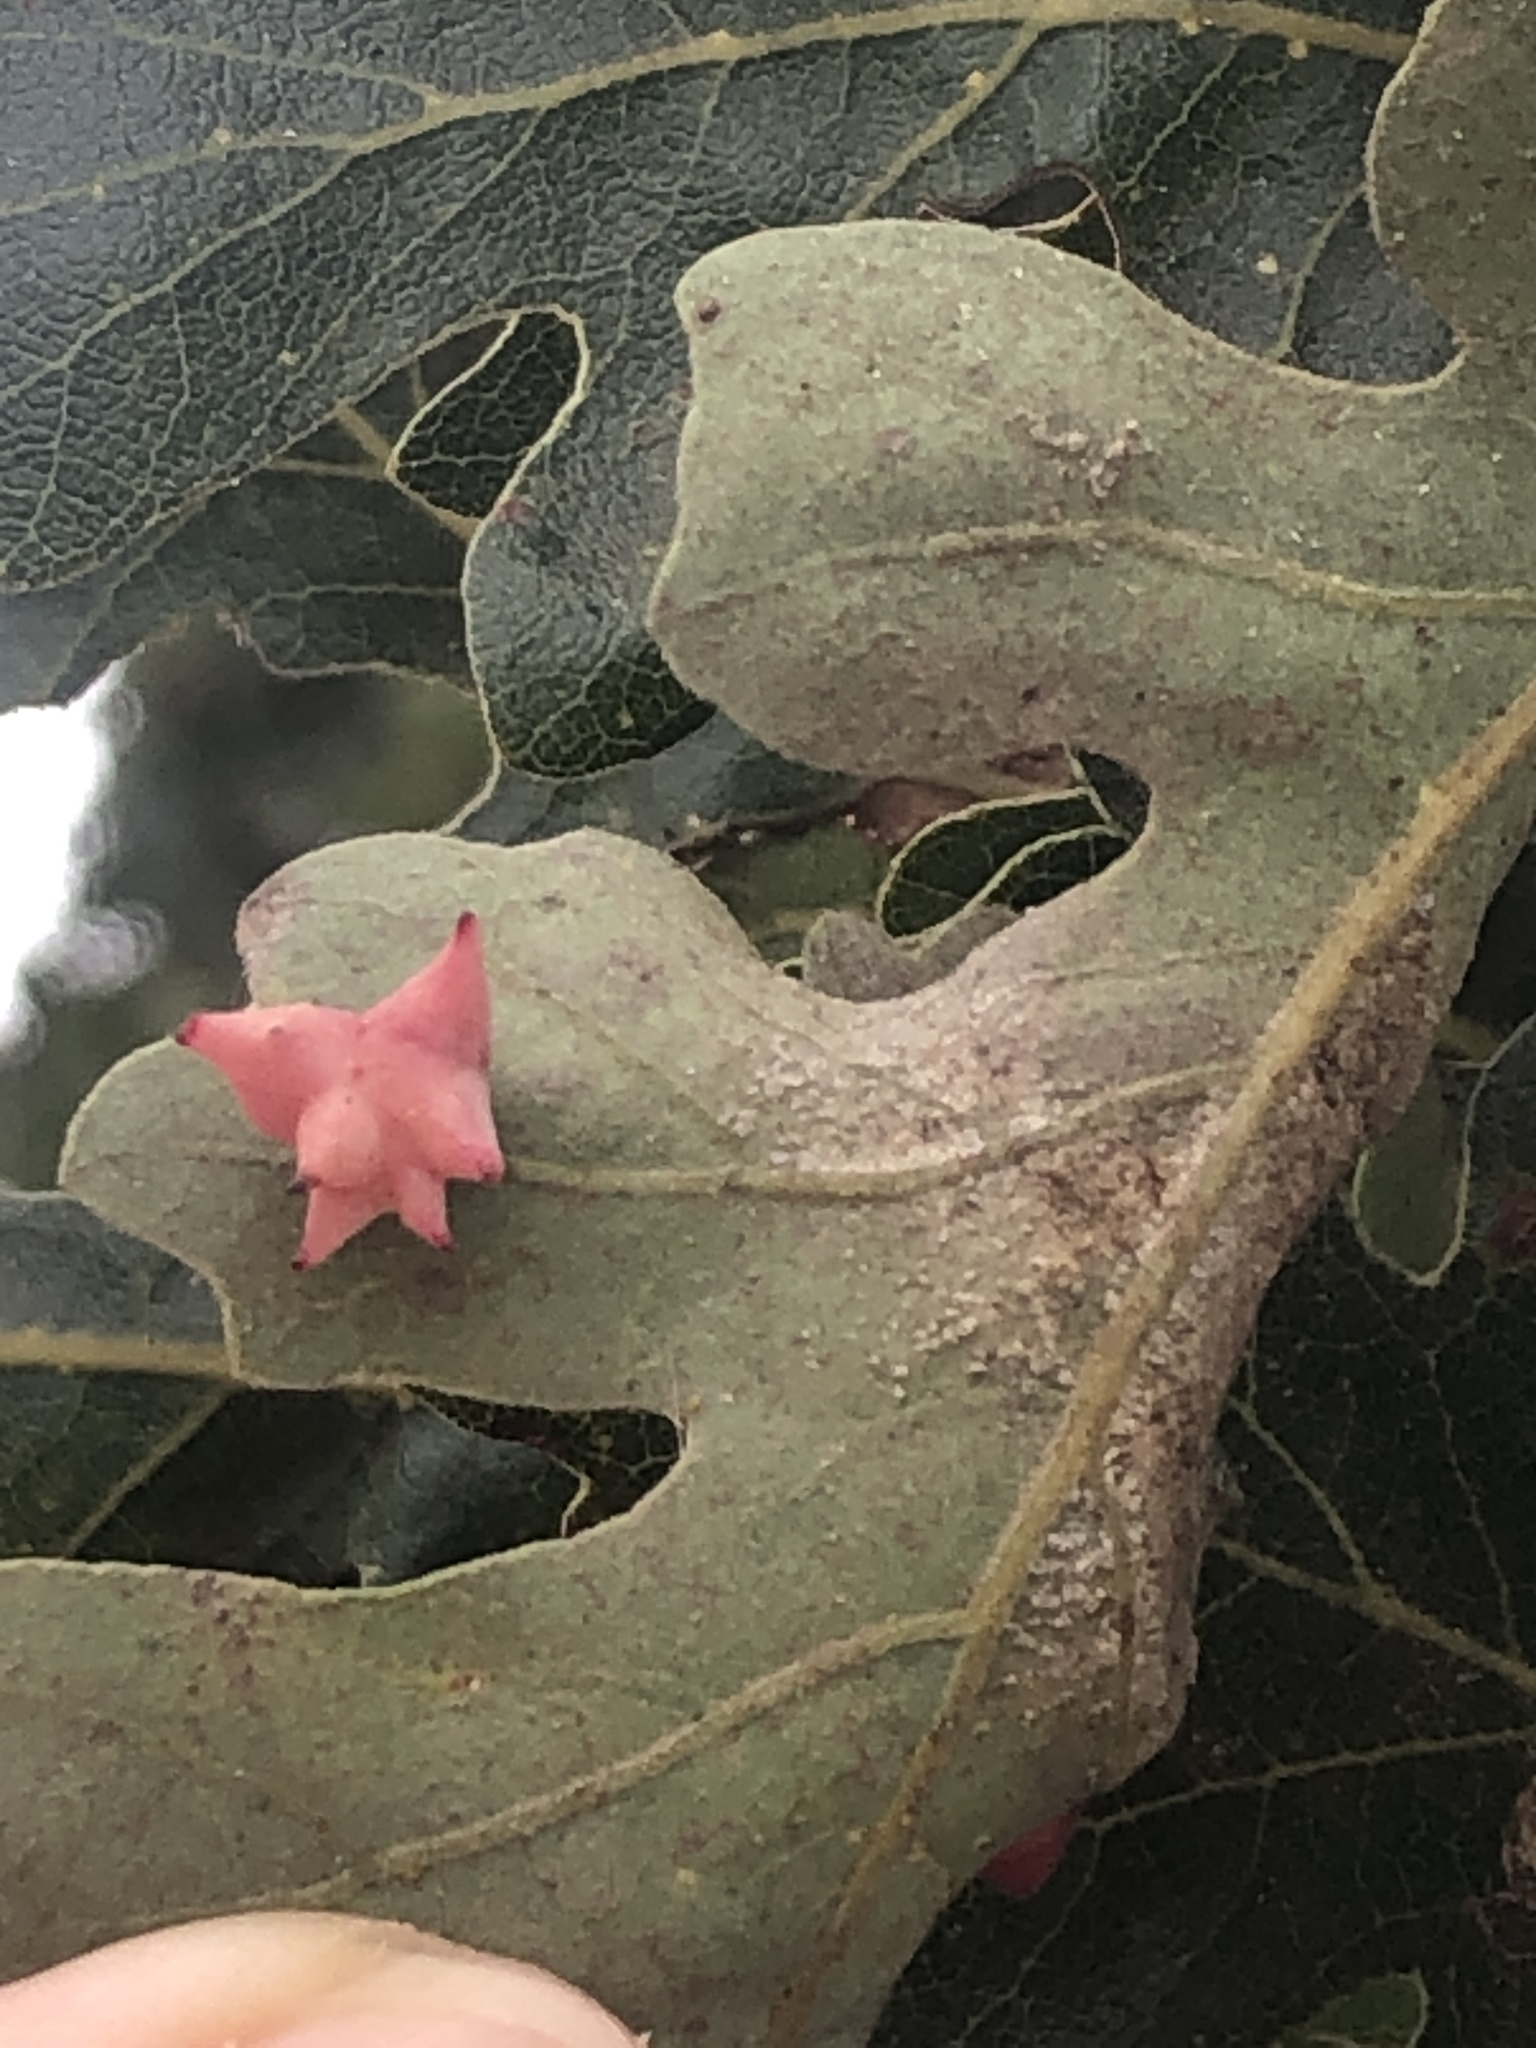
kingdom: Animalia
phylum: Arthropoda
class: Insecta
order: Hymenoptera
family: Cynipidae
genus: Cynips
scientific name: Cynips douglasi
